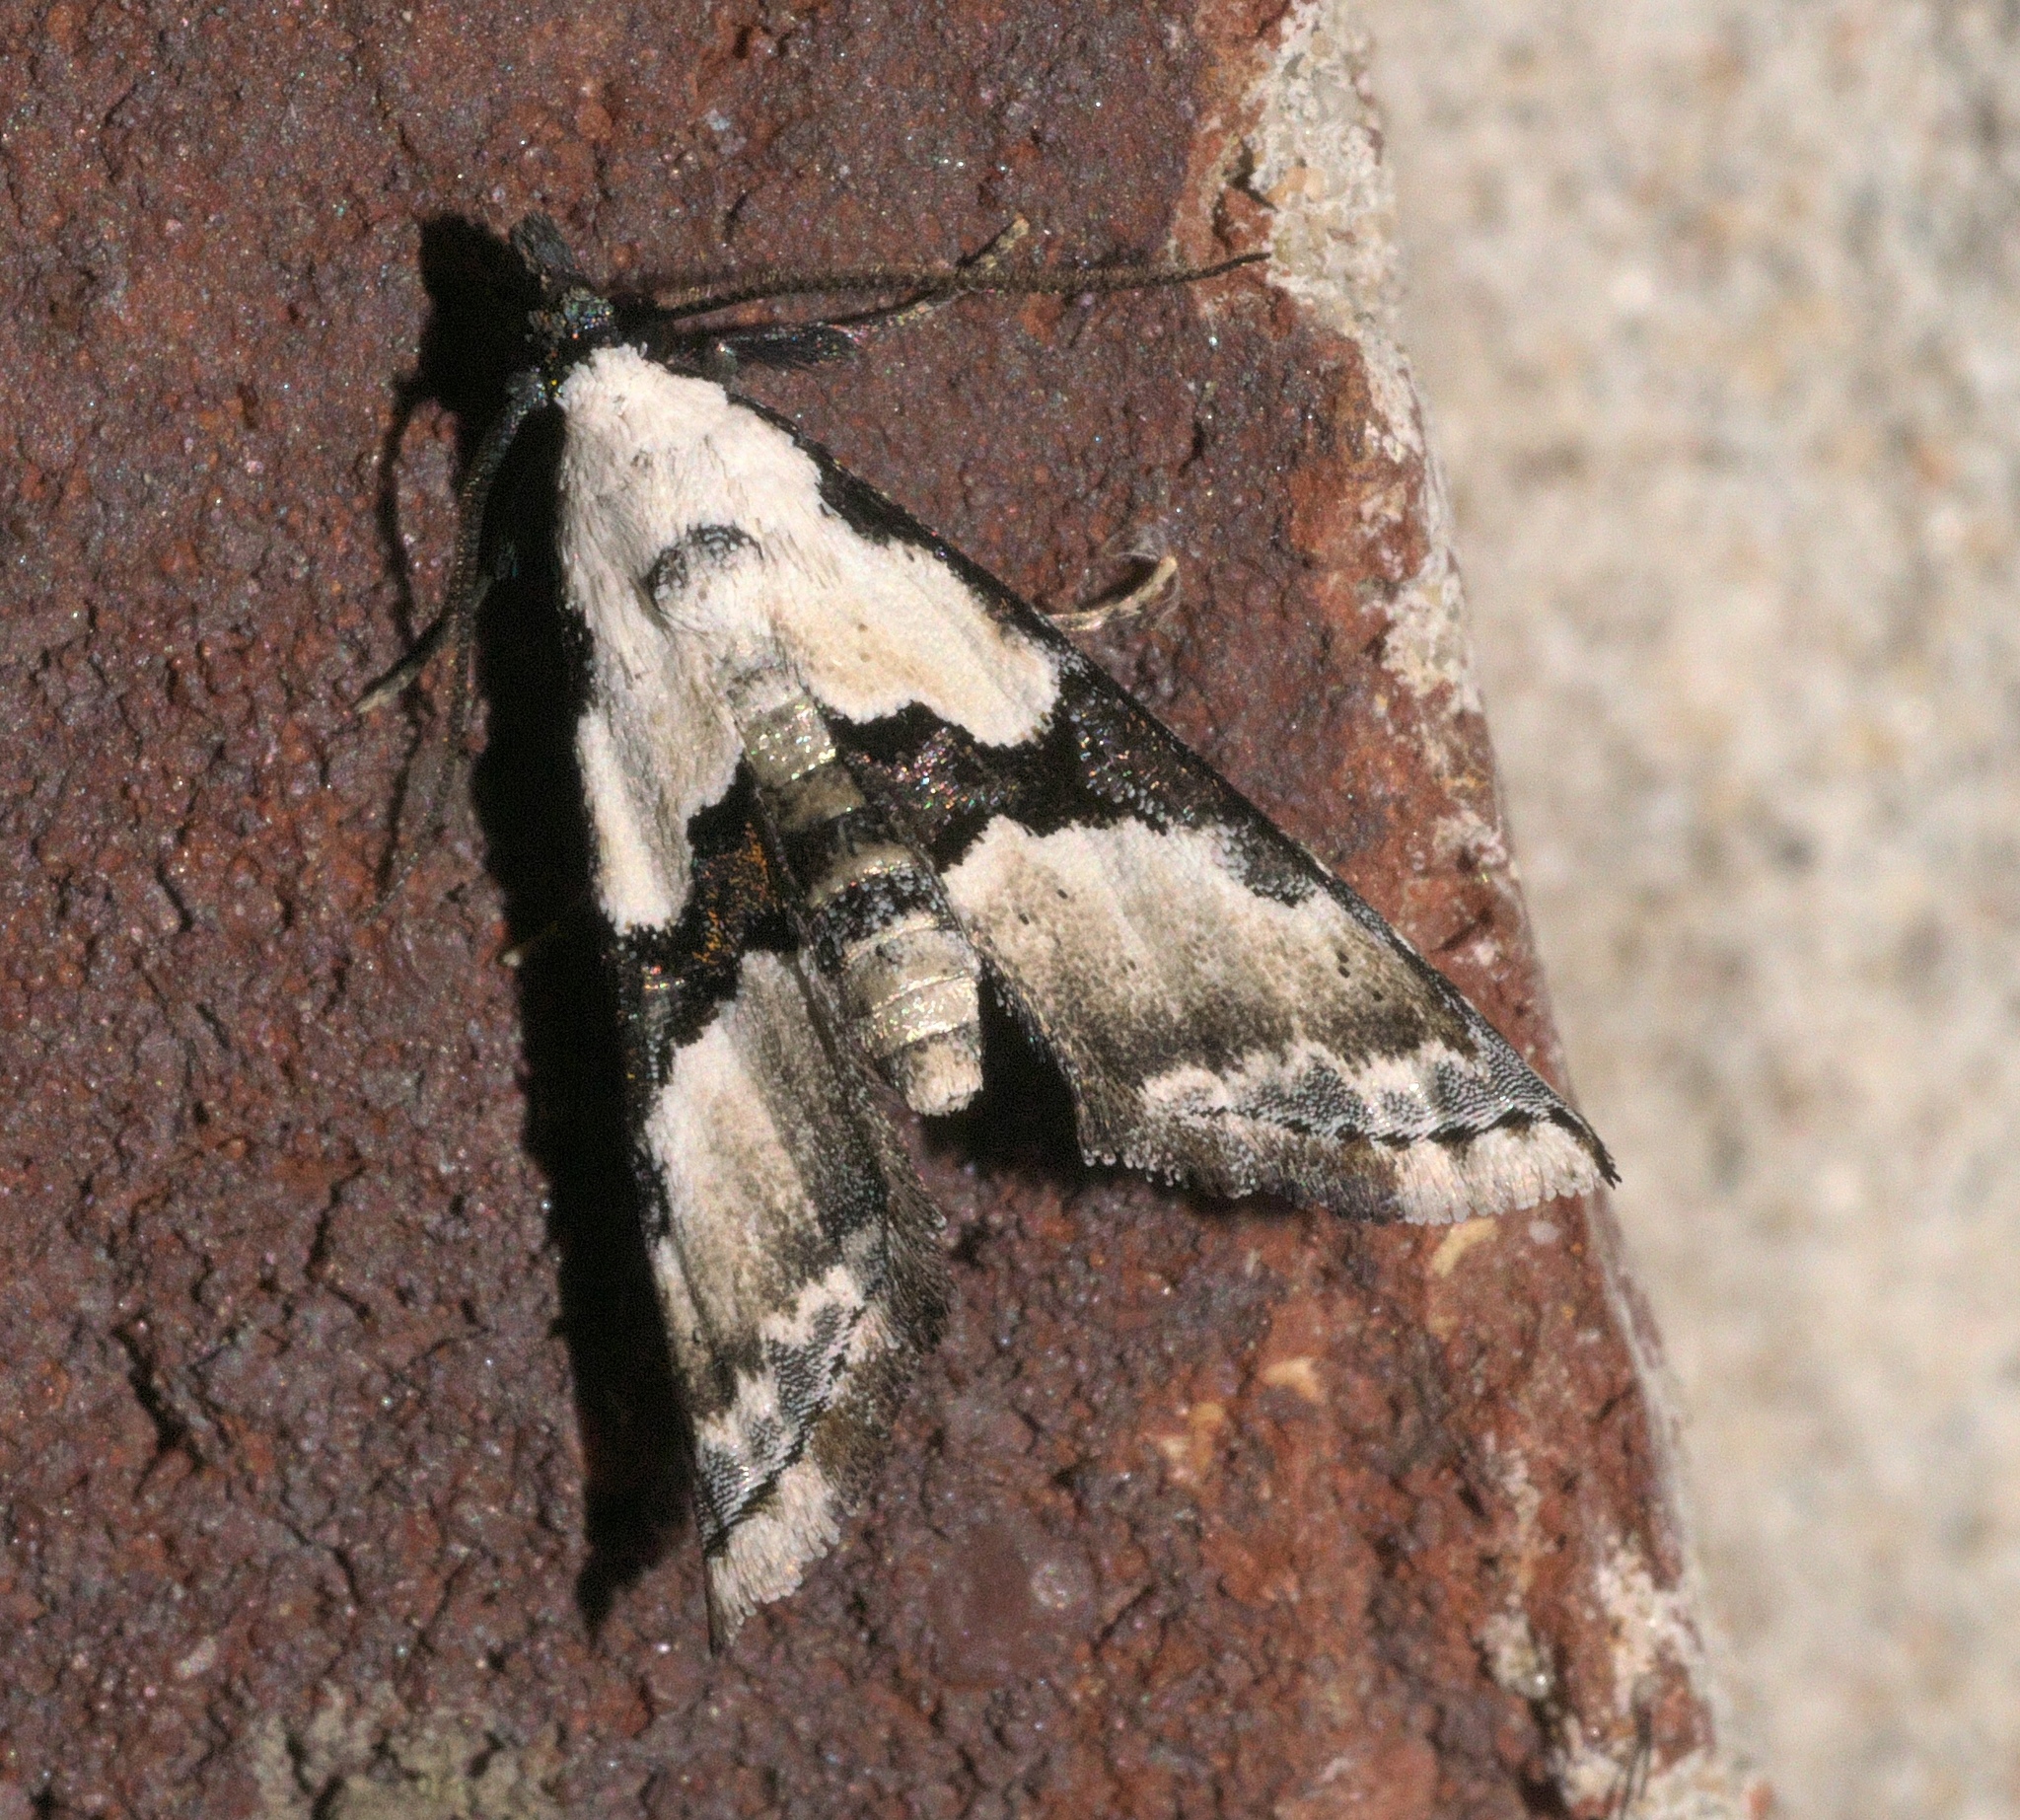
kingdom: Animalia
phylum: Arthropoda
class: Insecta
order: Lepidoptera
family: Noctuidae
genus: Nigetia
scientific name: Nigetia formosalis
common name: Thin-winged owlet
